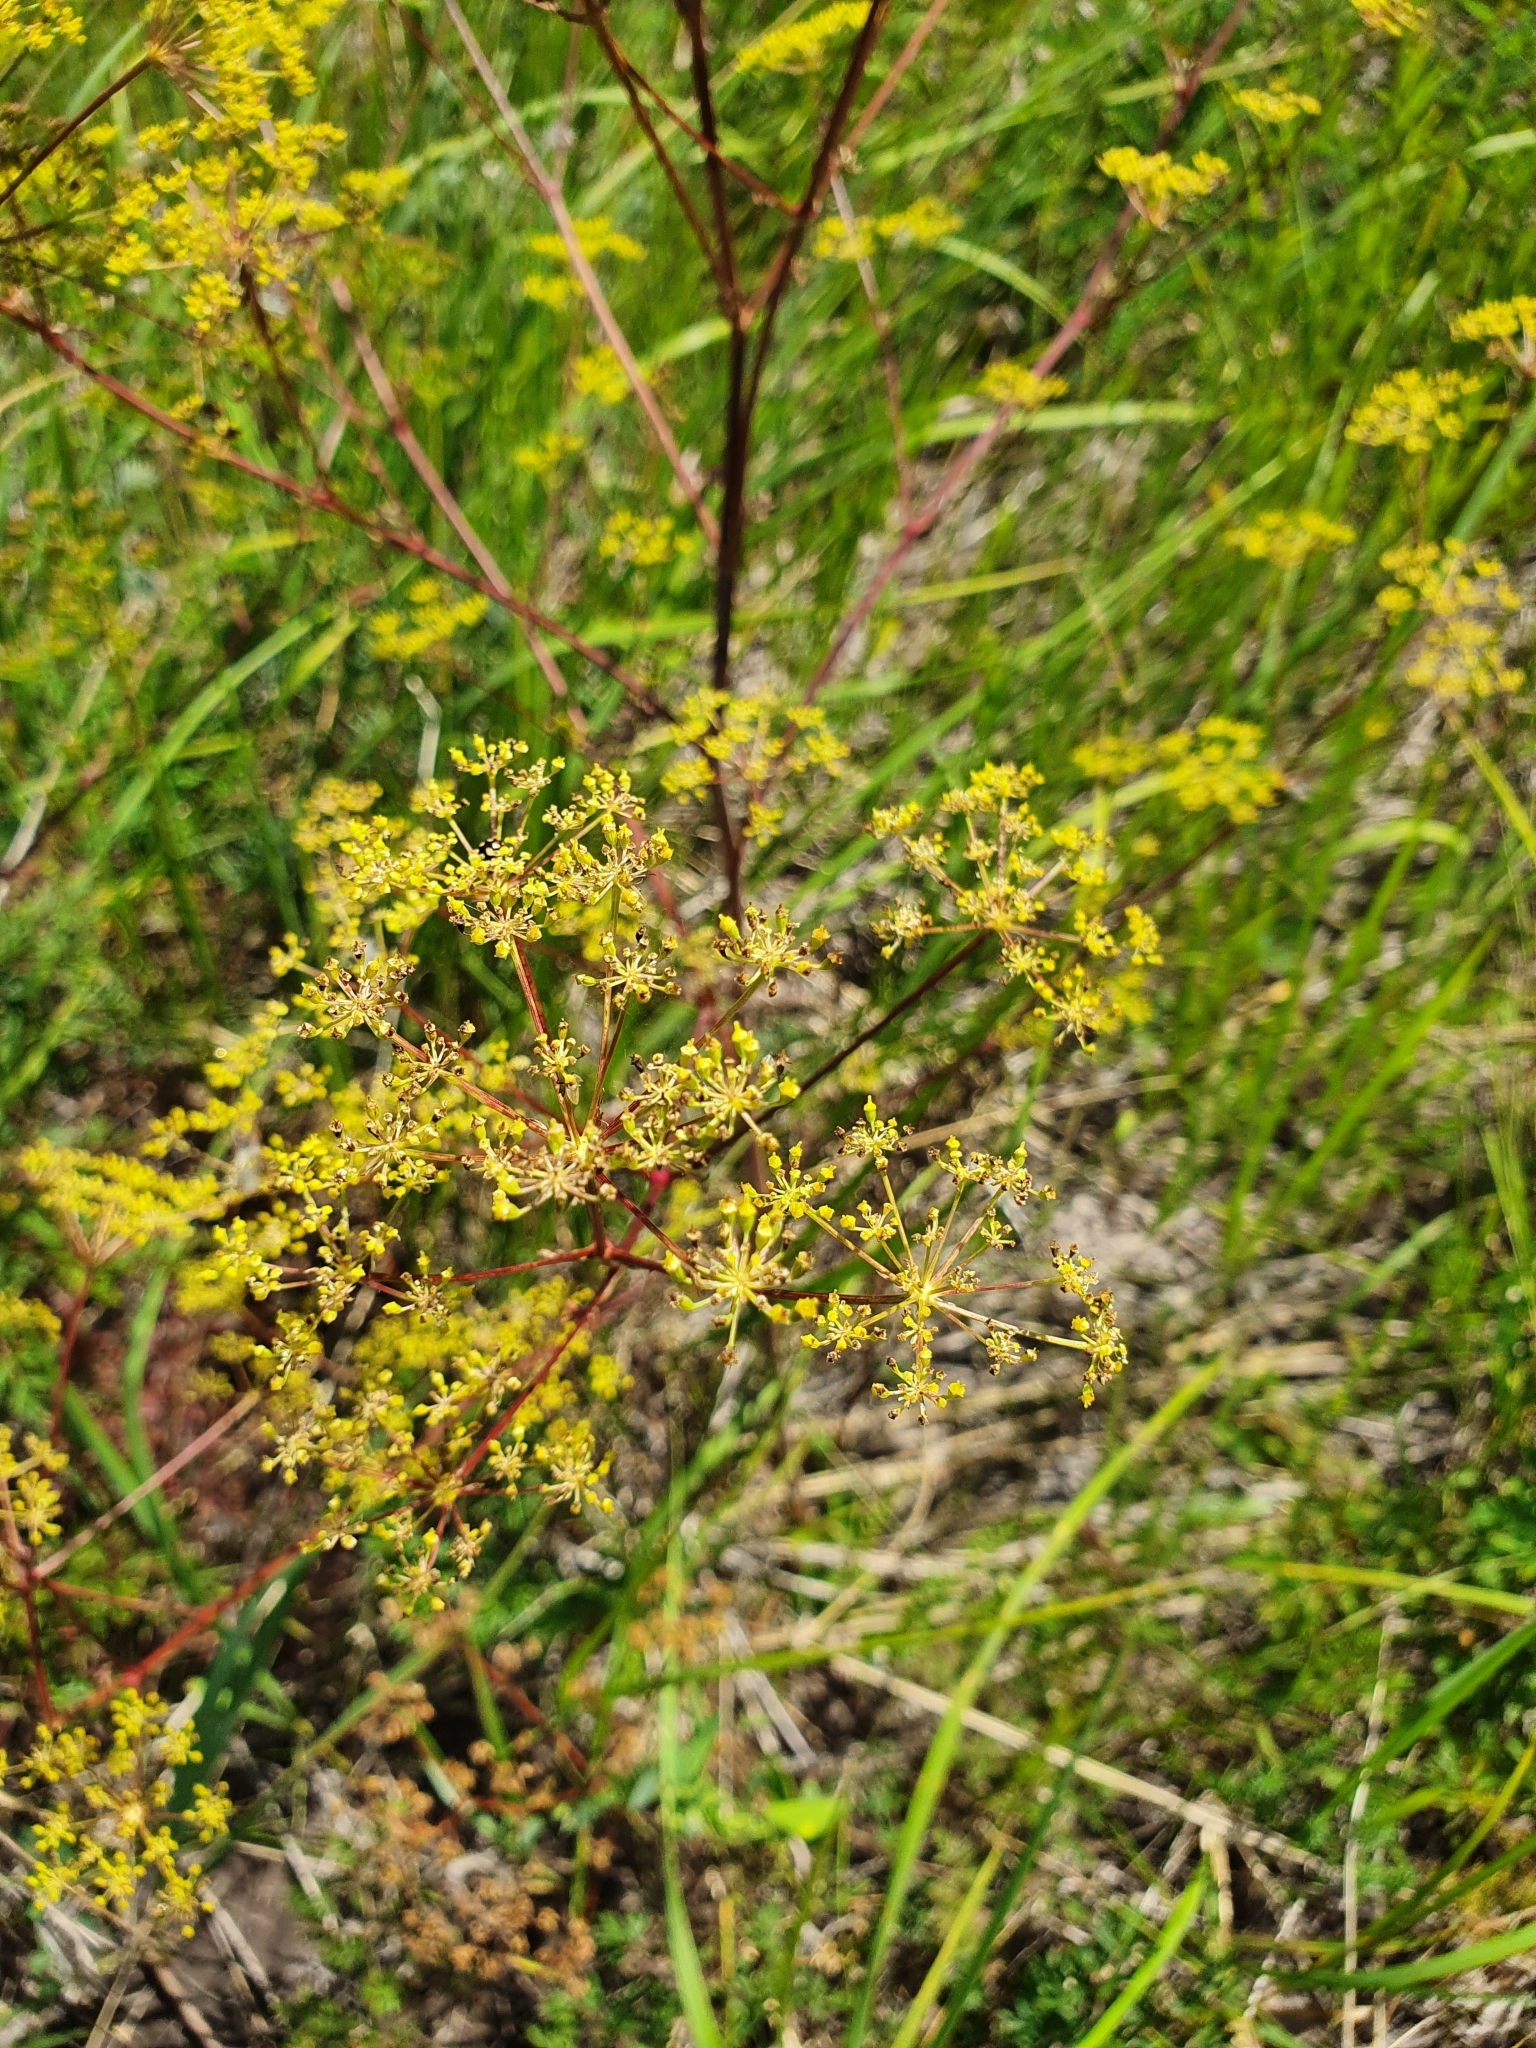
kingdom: Plantae
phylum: Tracheophyta
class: Magnoliopsida
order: Apiales
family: Apiaceae
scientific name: Apiaceae
